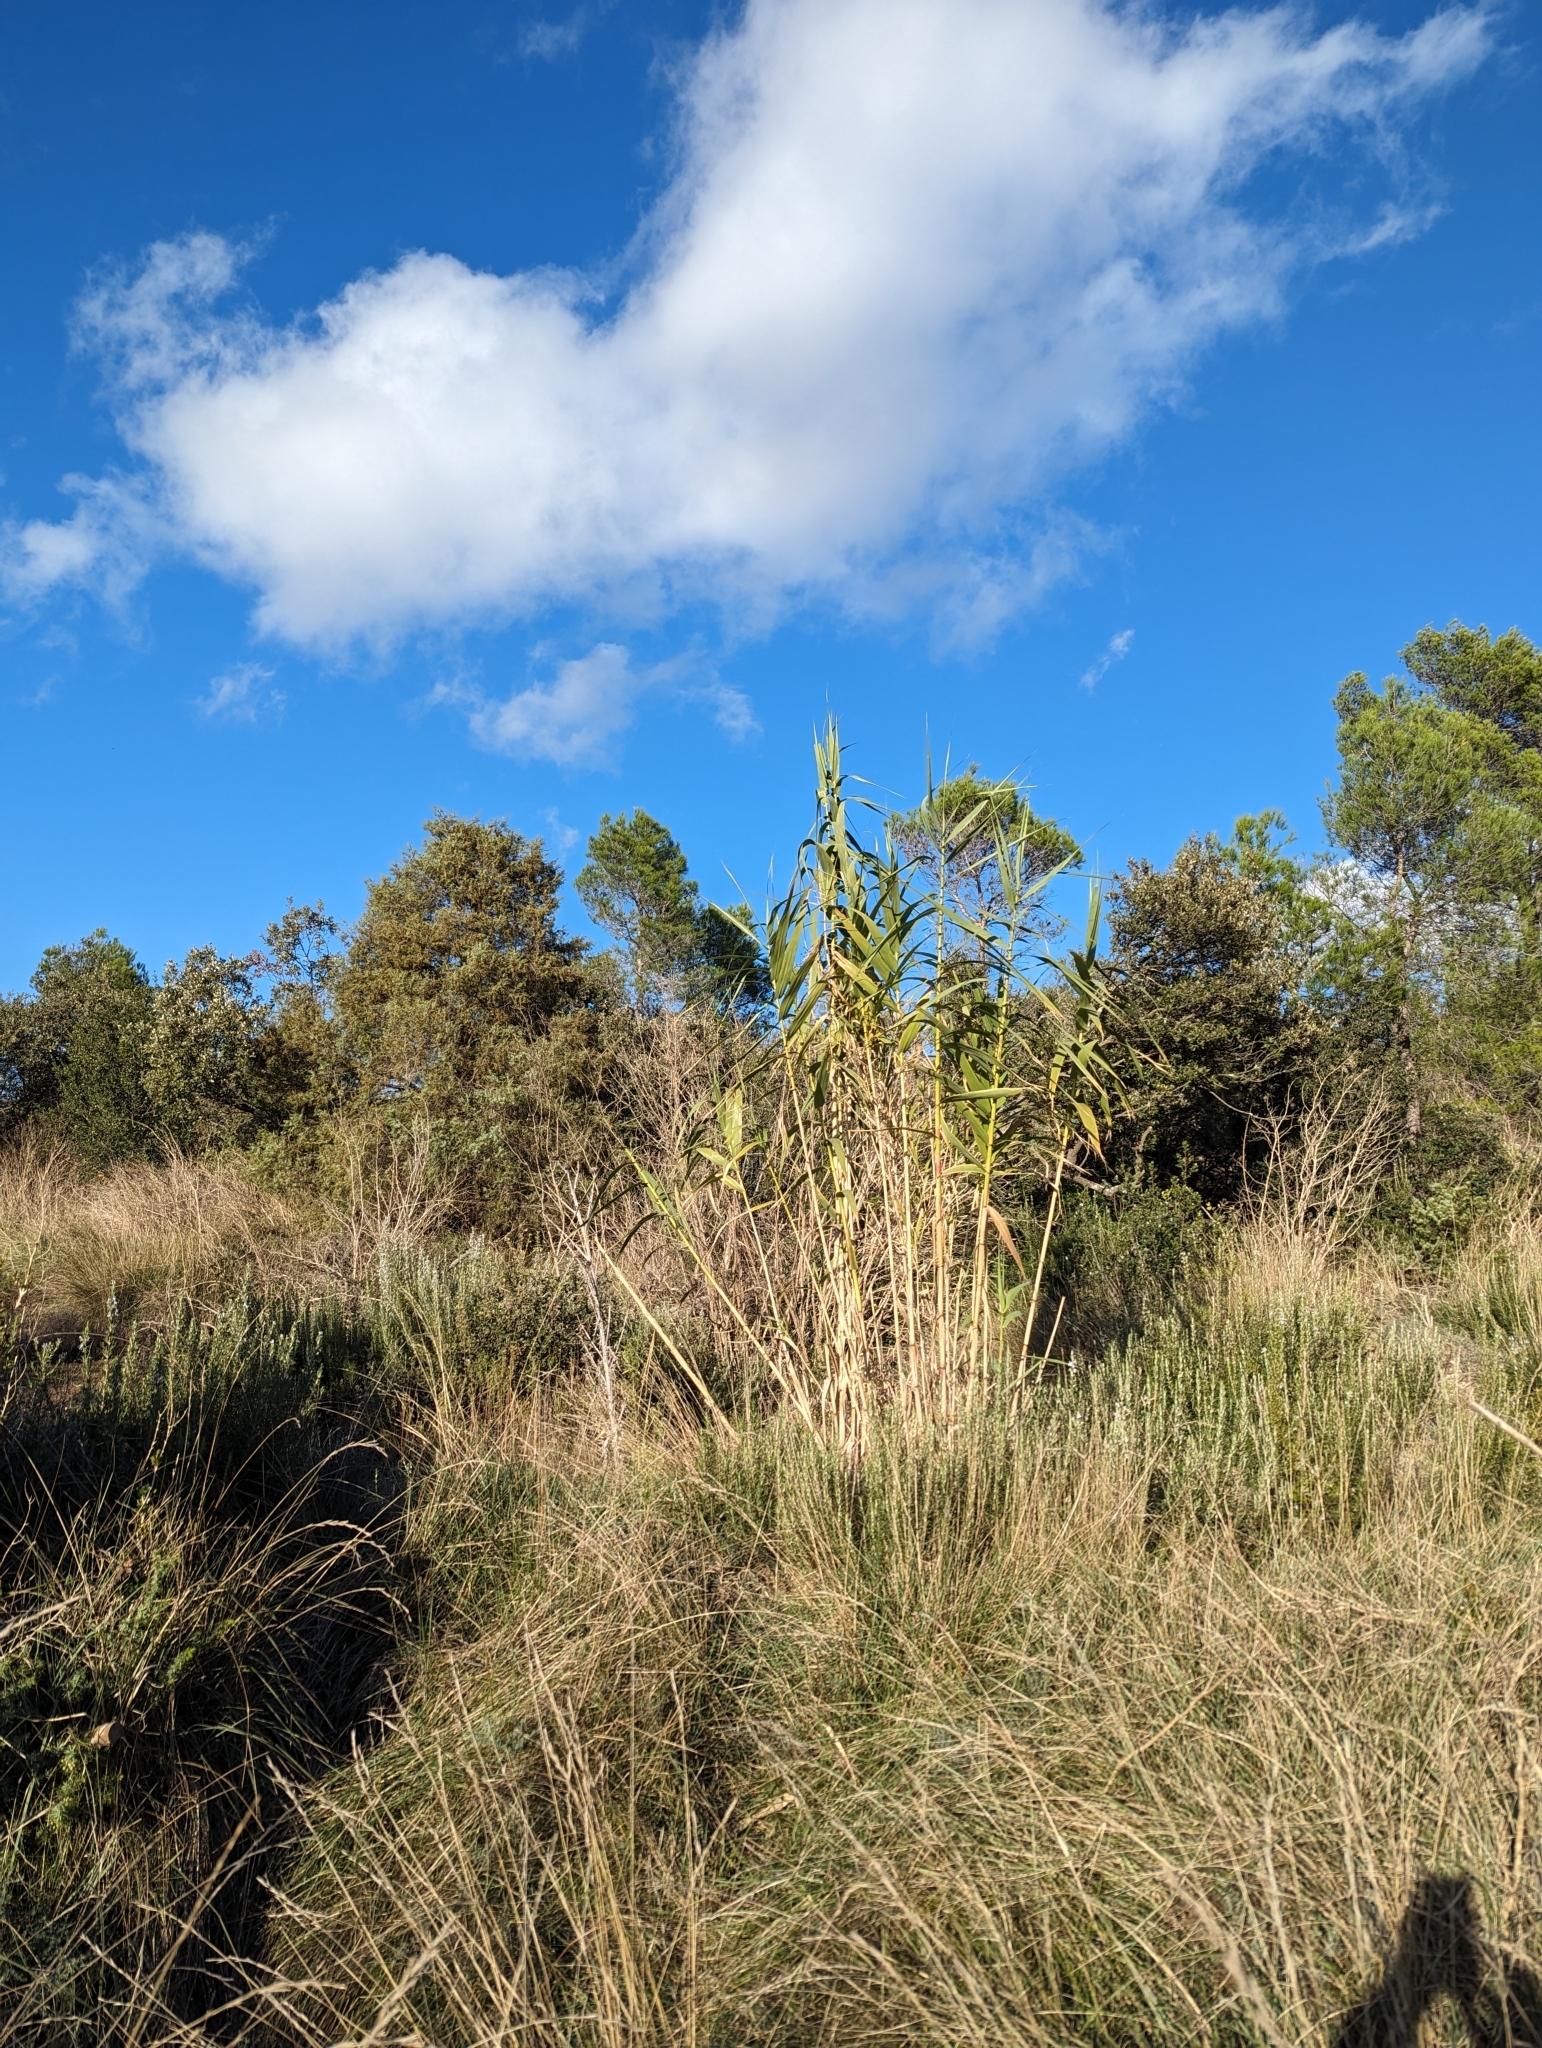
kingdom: Plantae
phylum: Tracheophyta
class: Liliopsida
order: Poales
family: Poaceae
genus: Arundo
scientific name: Arundo donax
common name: Giant reed
